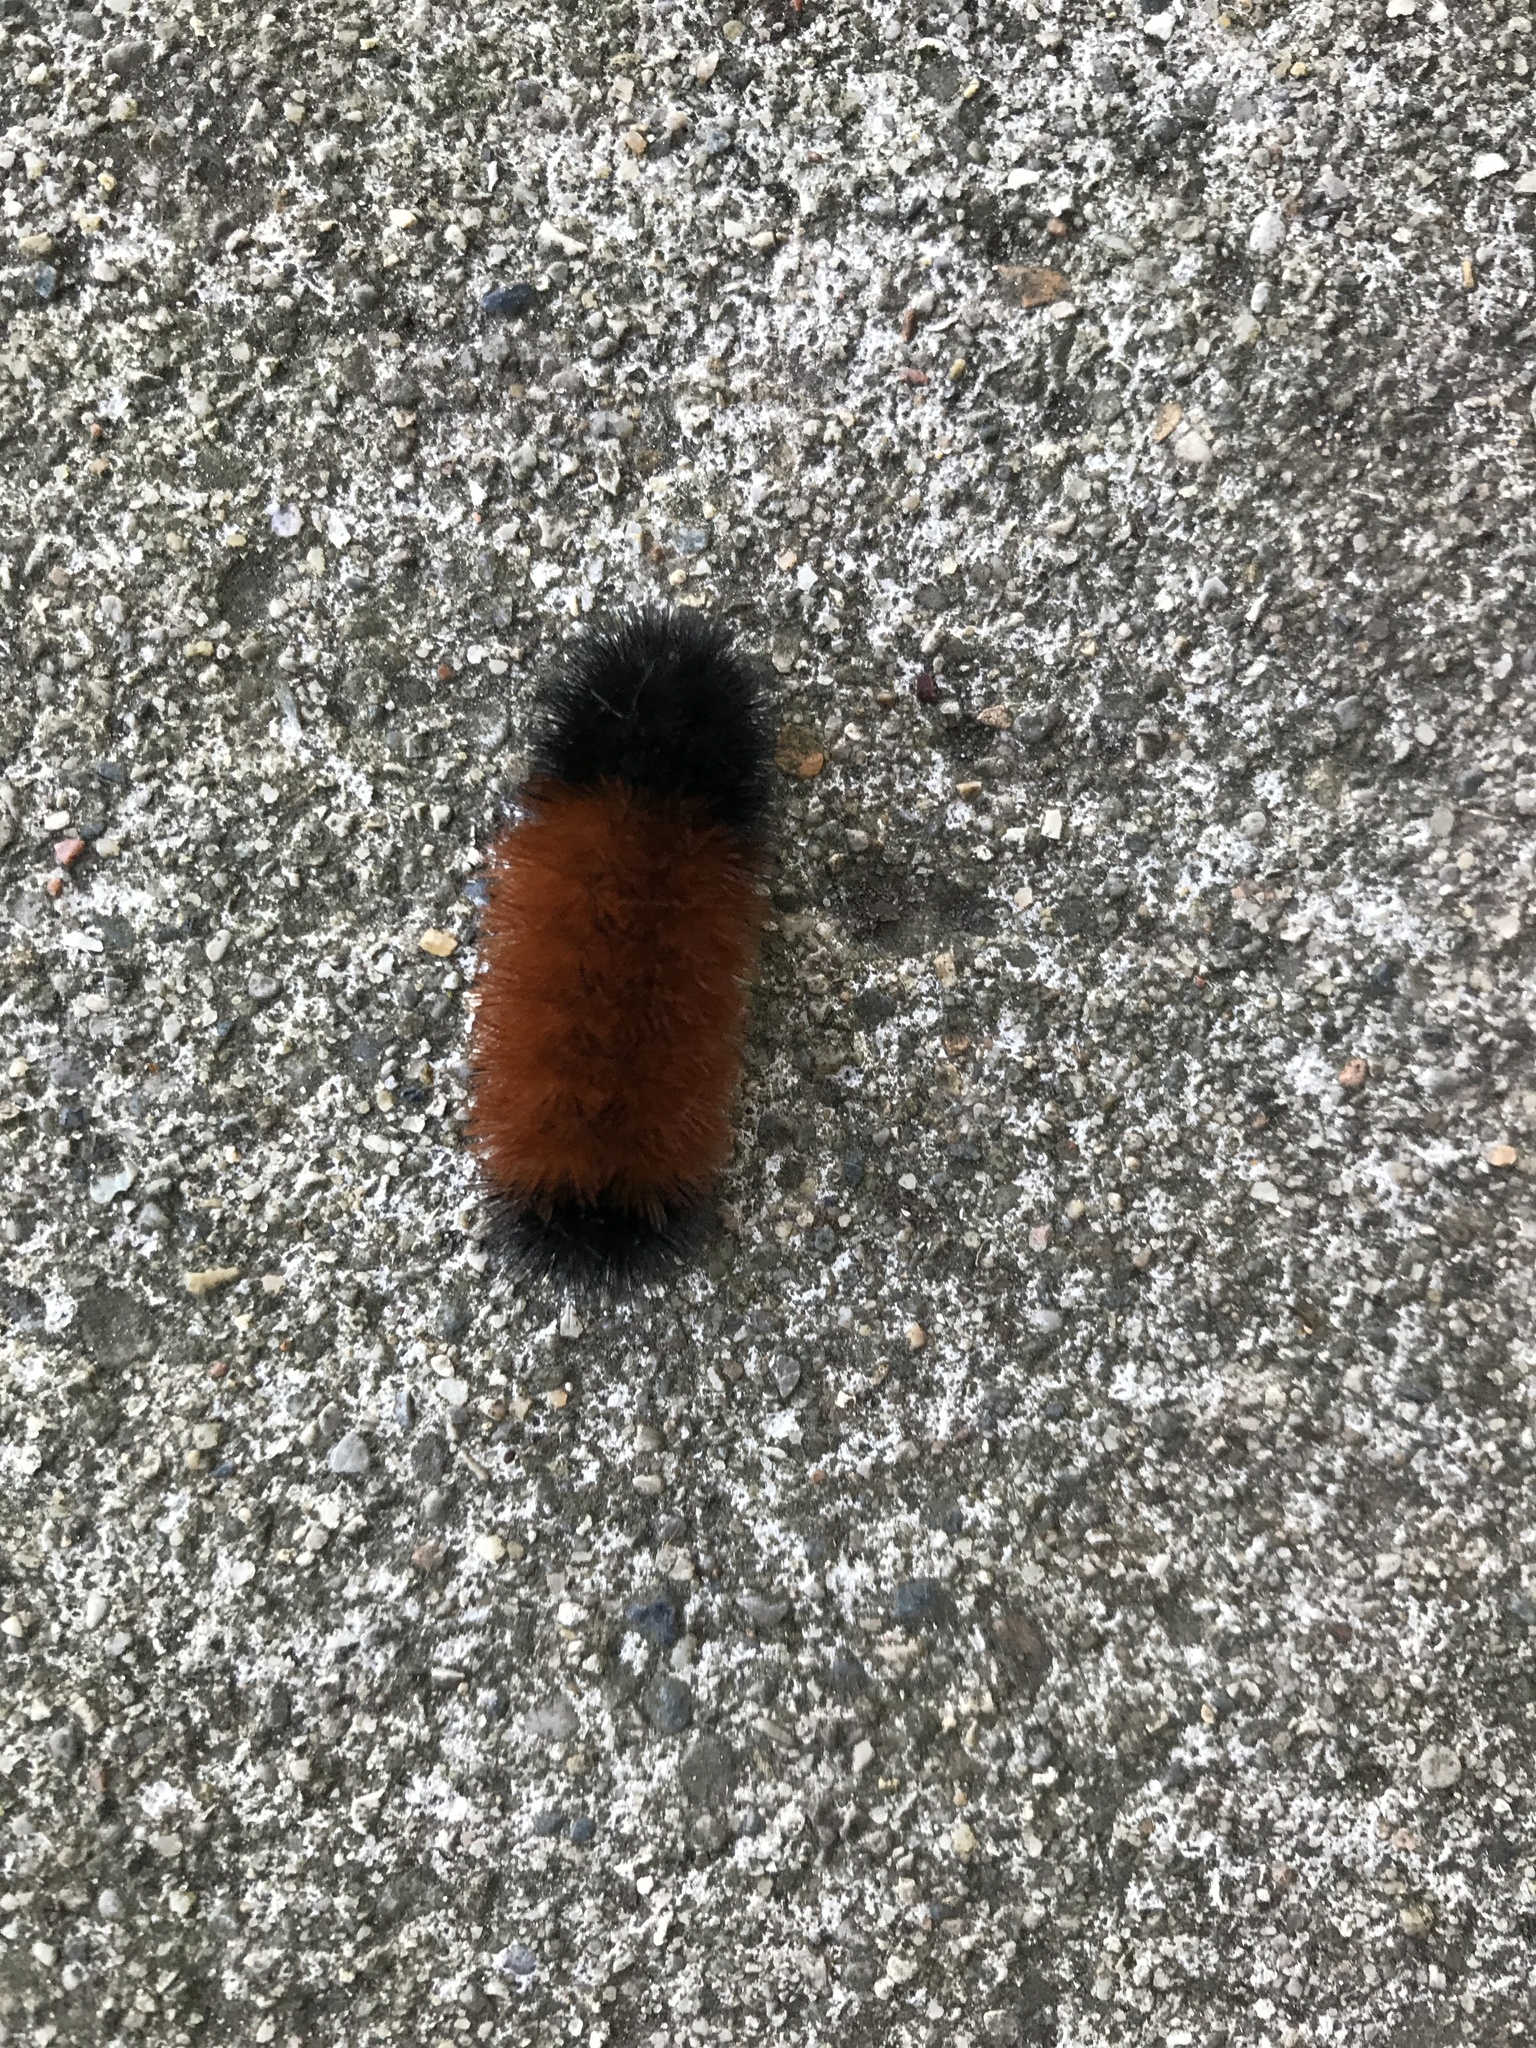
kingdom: Animalia
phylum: Arthropoda
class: Insecta
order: Lepidoptera
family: Erebidae
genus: Pyrrharctia
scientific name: Pyrrharctia isabella
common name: Isabella tiger moth
